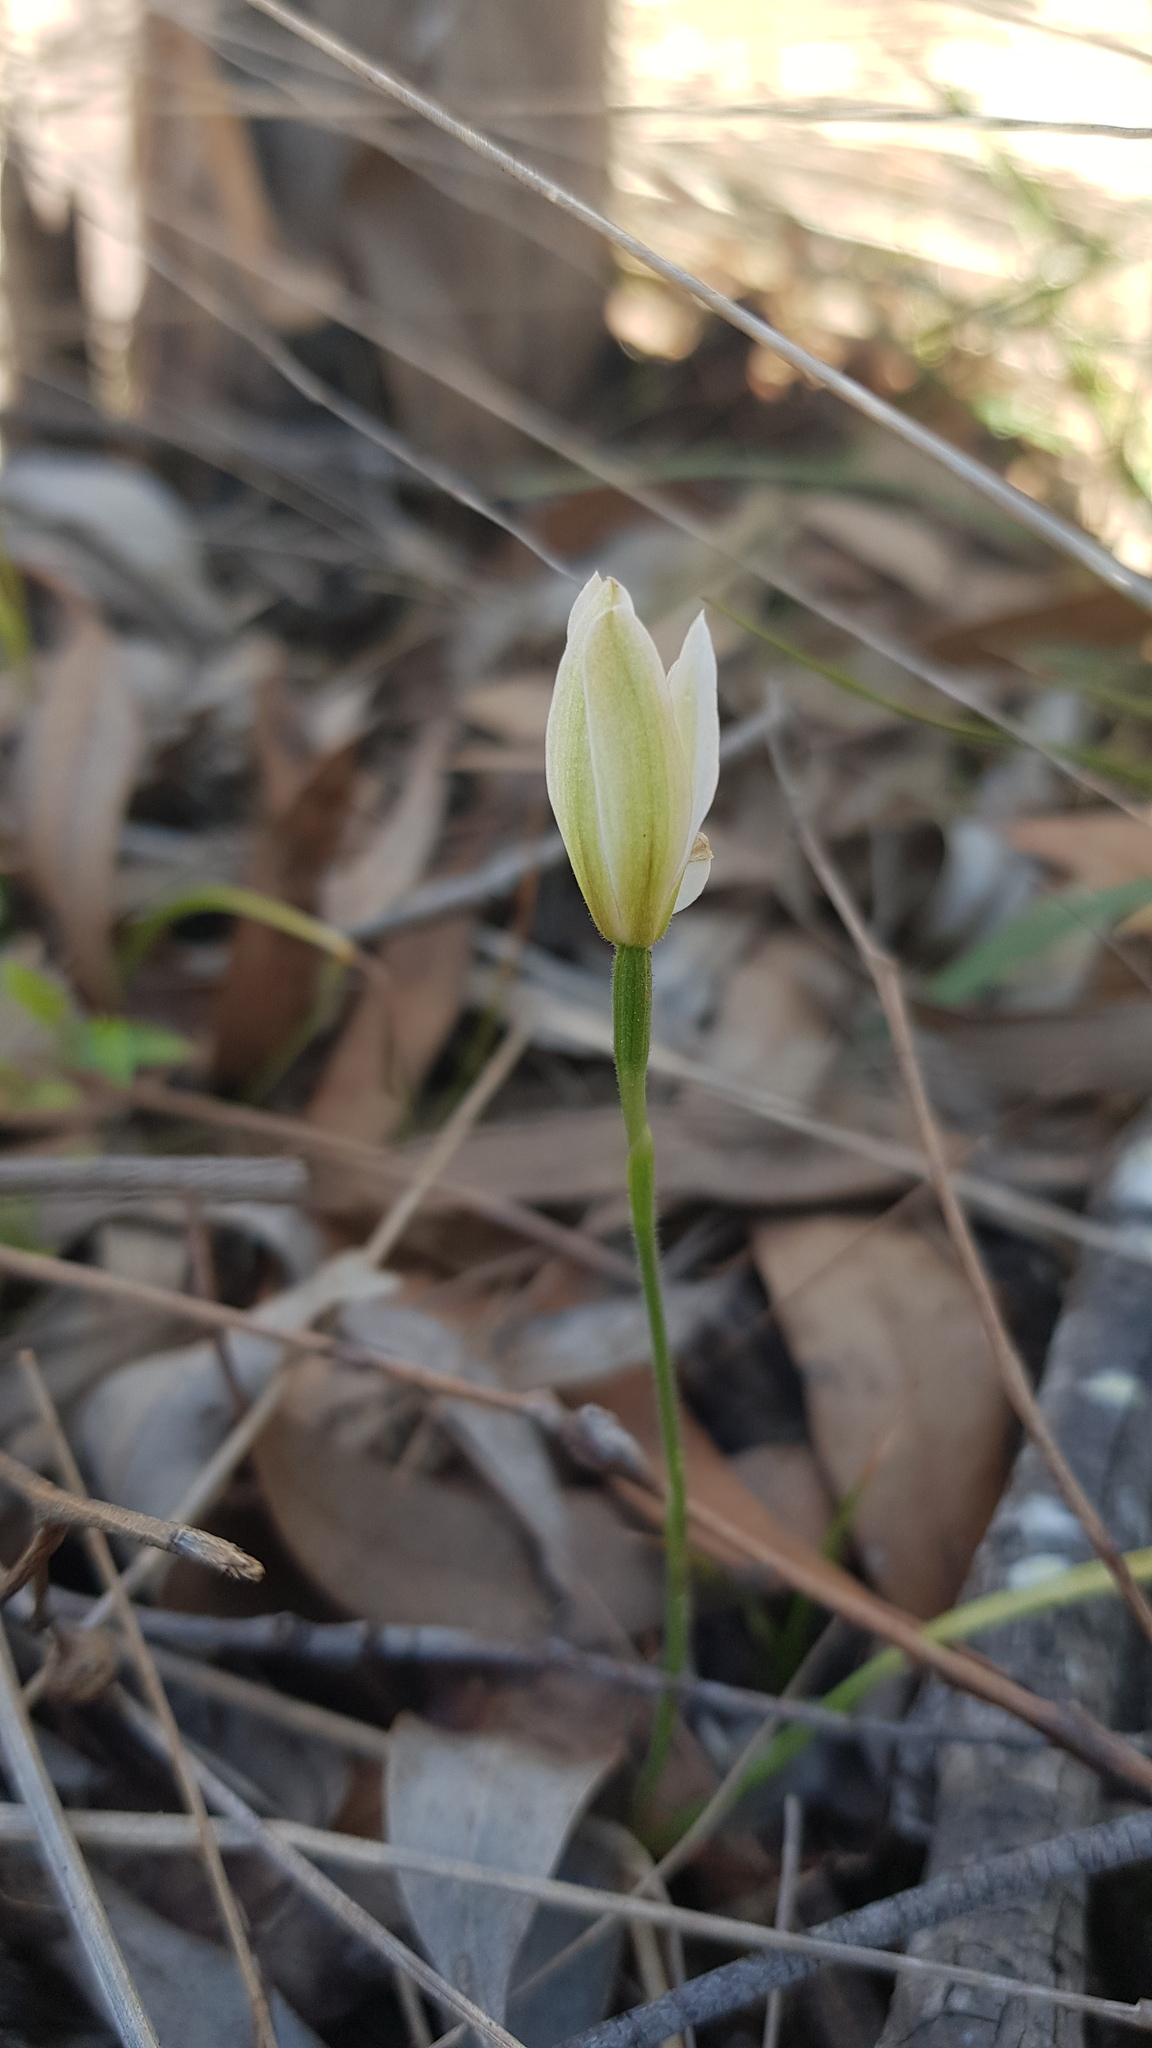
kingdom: Plantae
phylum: Tracheophyta
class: Liliopsida
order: Asparagales
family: Orchidaceae
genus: Caladenia
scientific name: Caladenia catenata
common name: White caladenia
